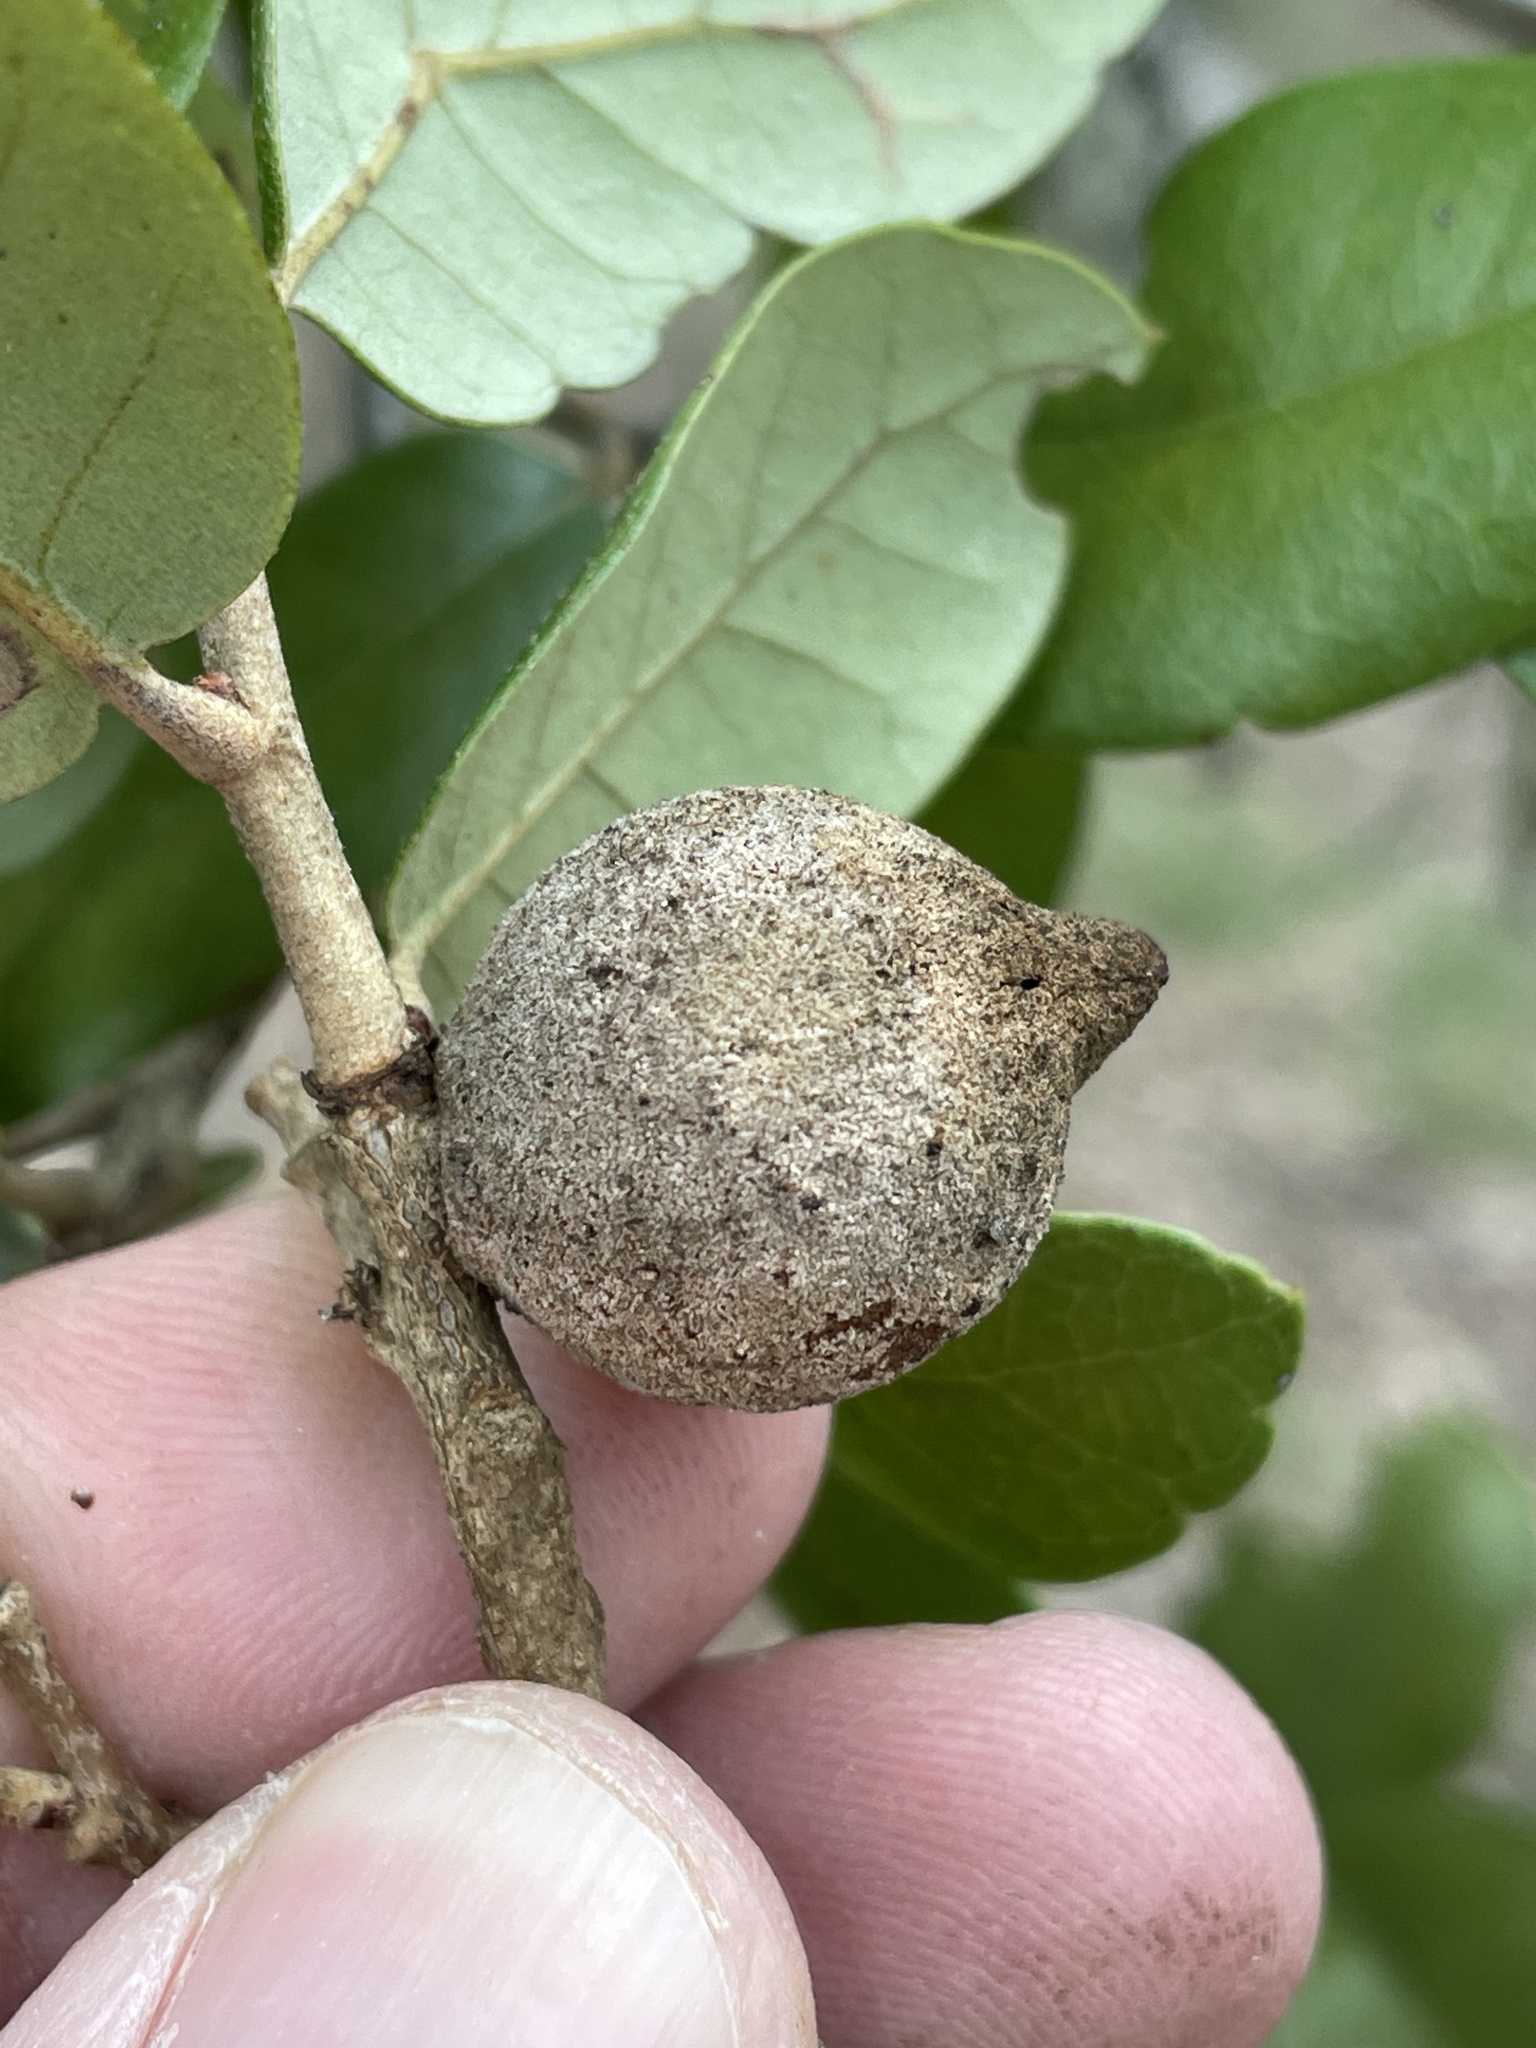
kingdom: Animalia
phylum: Arthropoda
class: Insecta
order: Hymenoptera
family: Cynipidae
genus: Disholcaspis
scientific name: Disholcaspis
